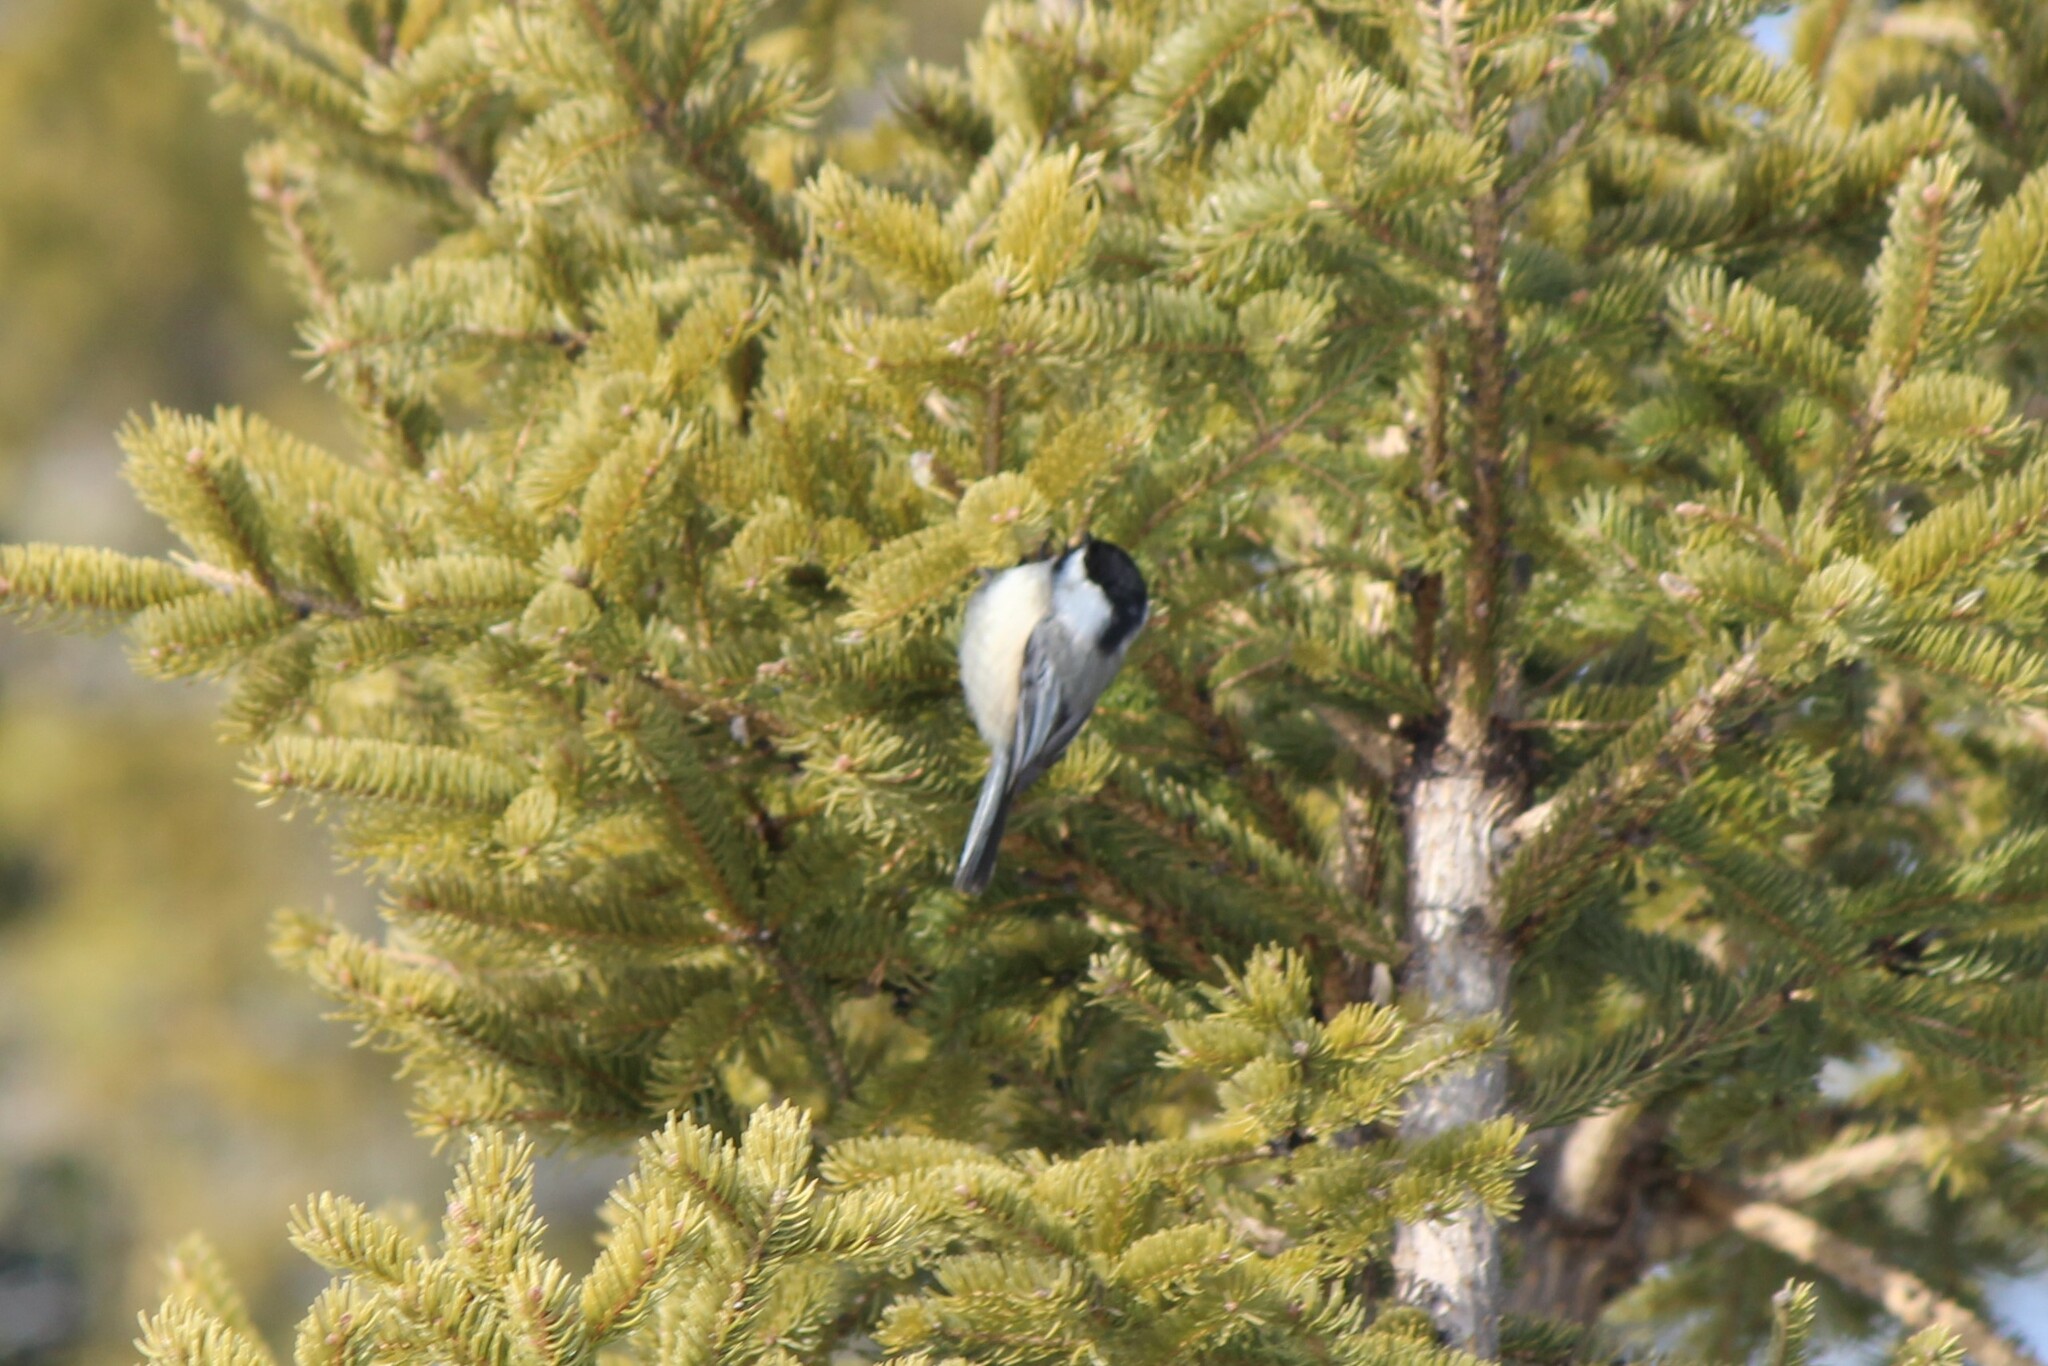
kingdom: Animalia
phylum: Chordata
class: Aves
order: Passeriformes
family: Paridae
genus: Poecile
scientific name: Poecile atricapillus
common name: Black-capped chickadee
